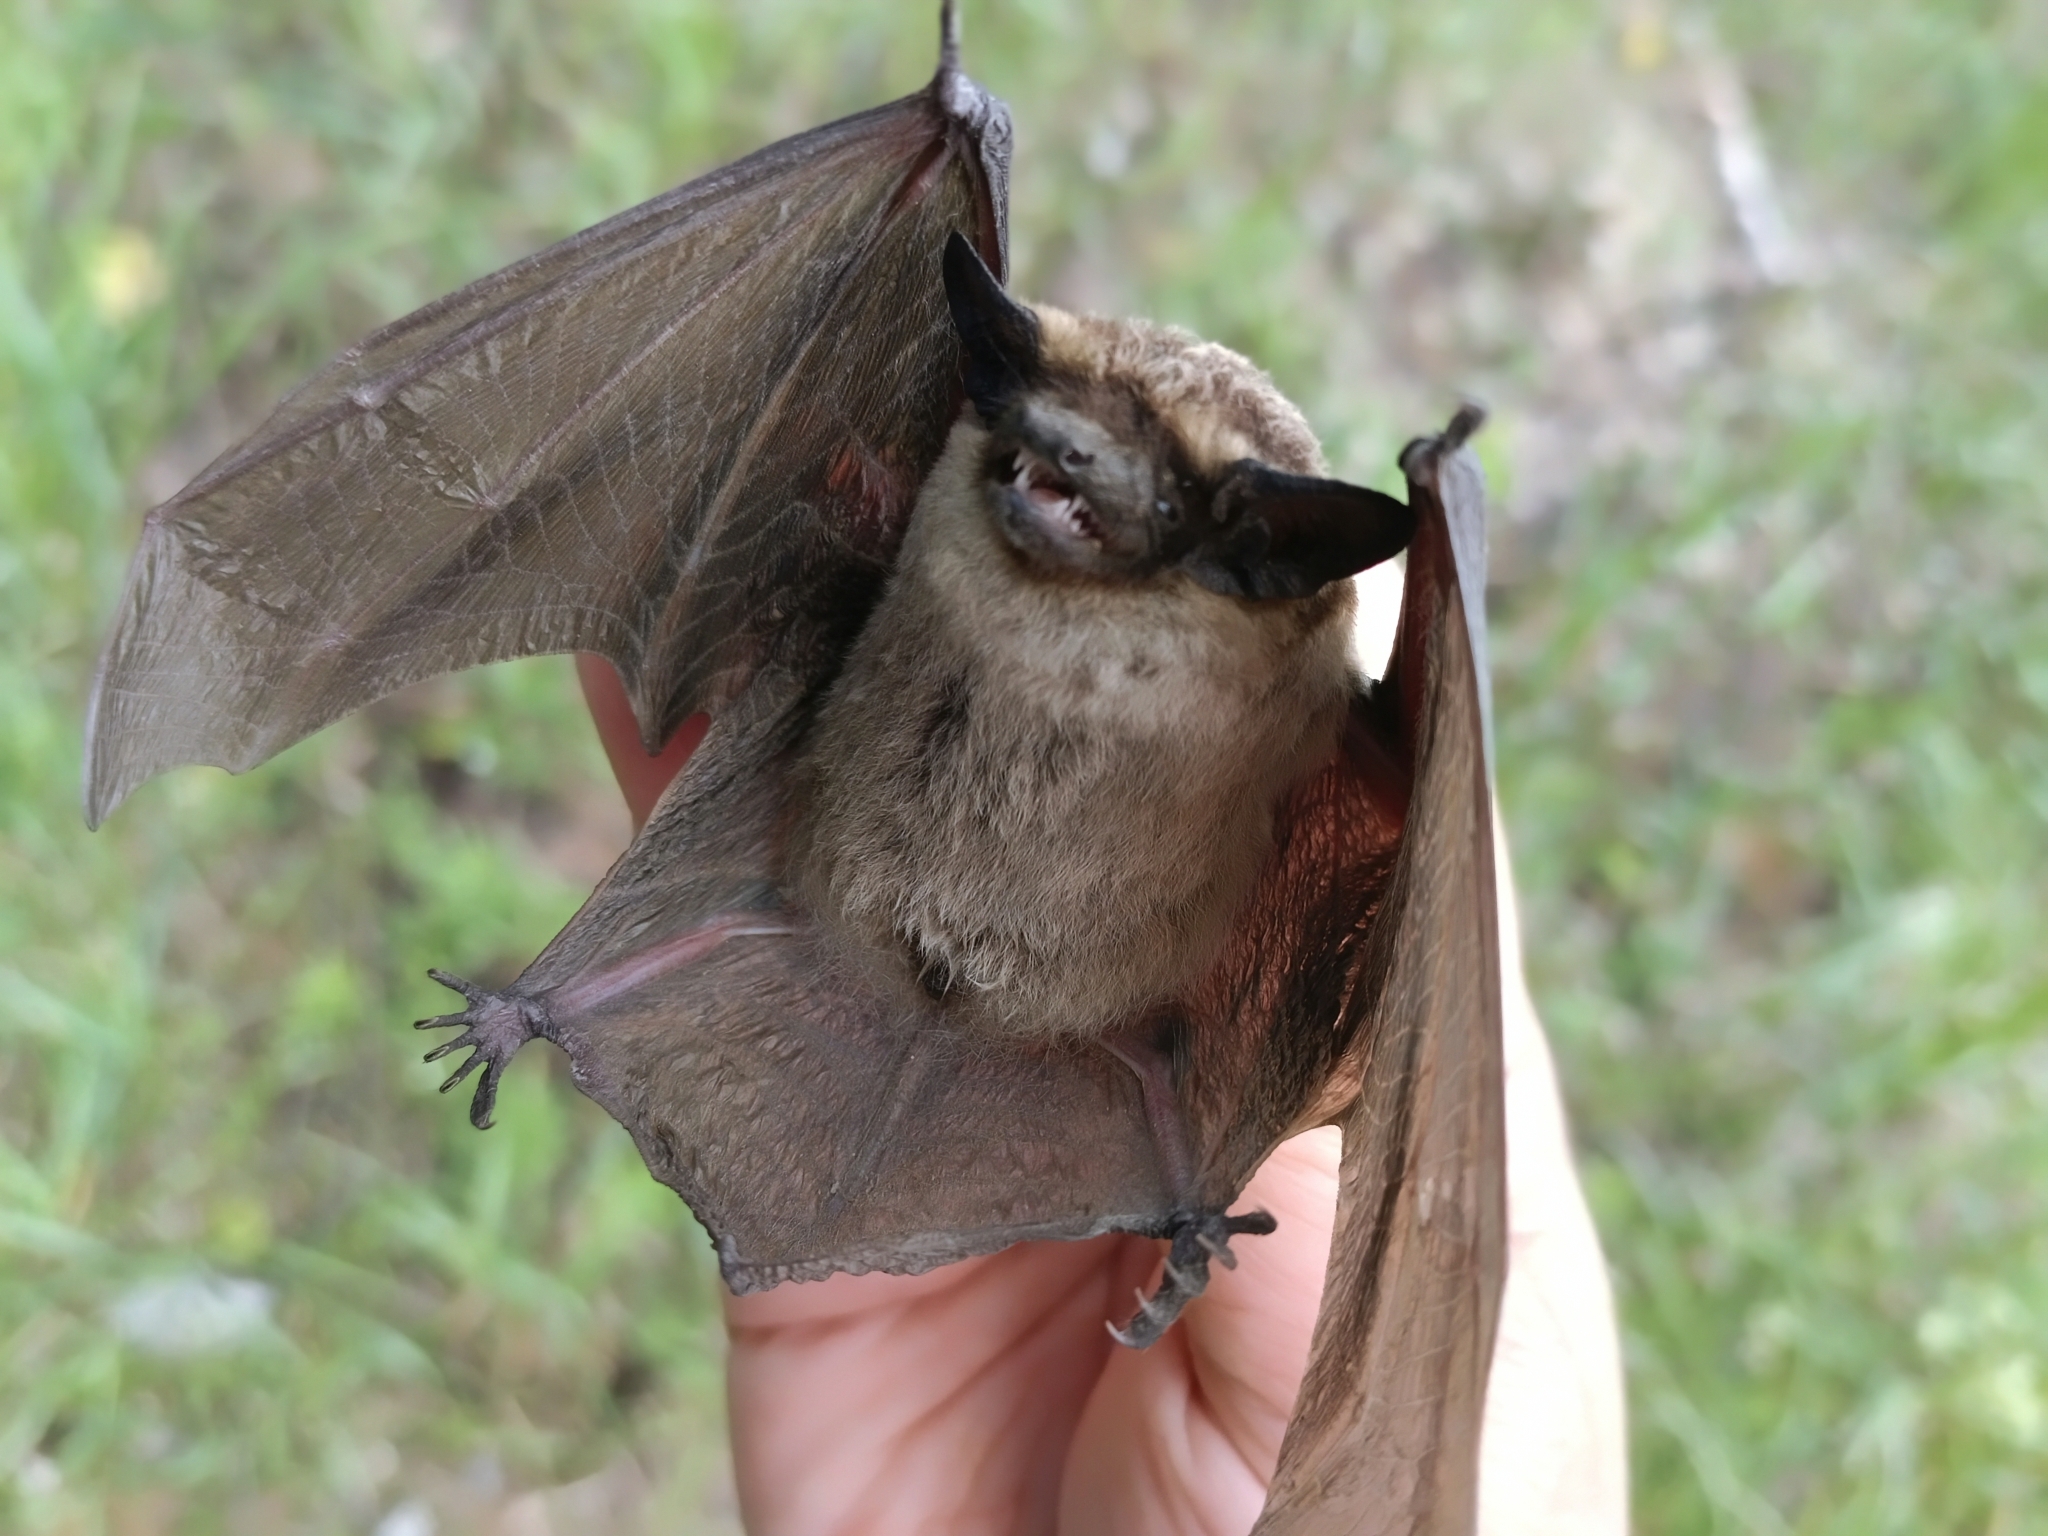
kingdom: Animalia
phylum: Chordata
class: Mammalia
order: Chiroptera
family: Vespertilionidae
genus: Vespertilio
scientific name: Vespertilio murinus
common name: Particolored bat
